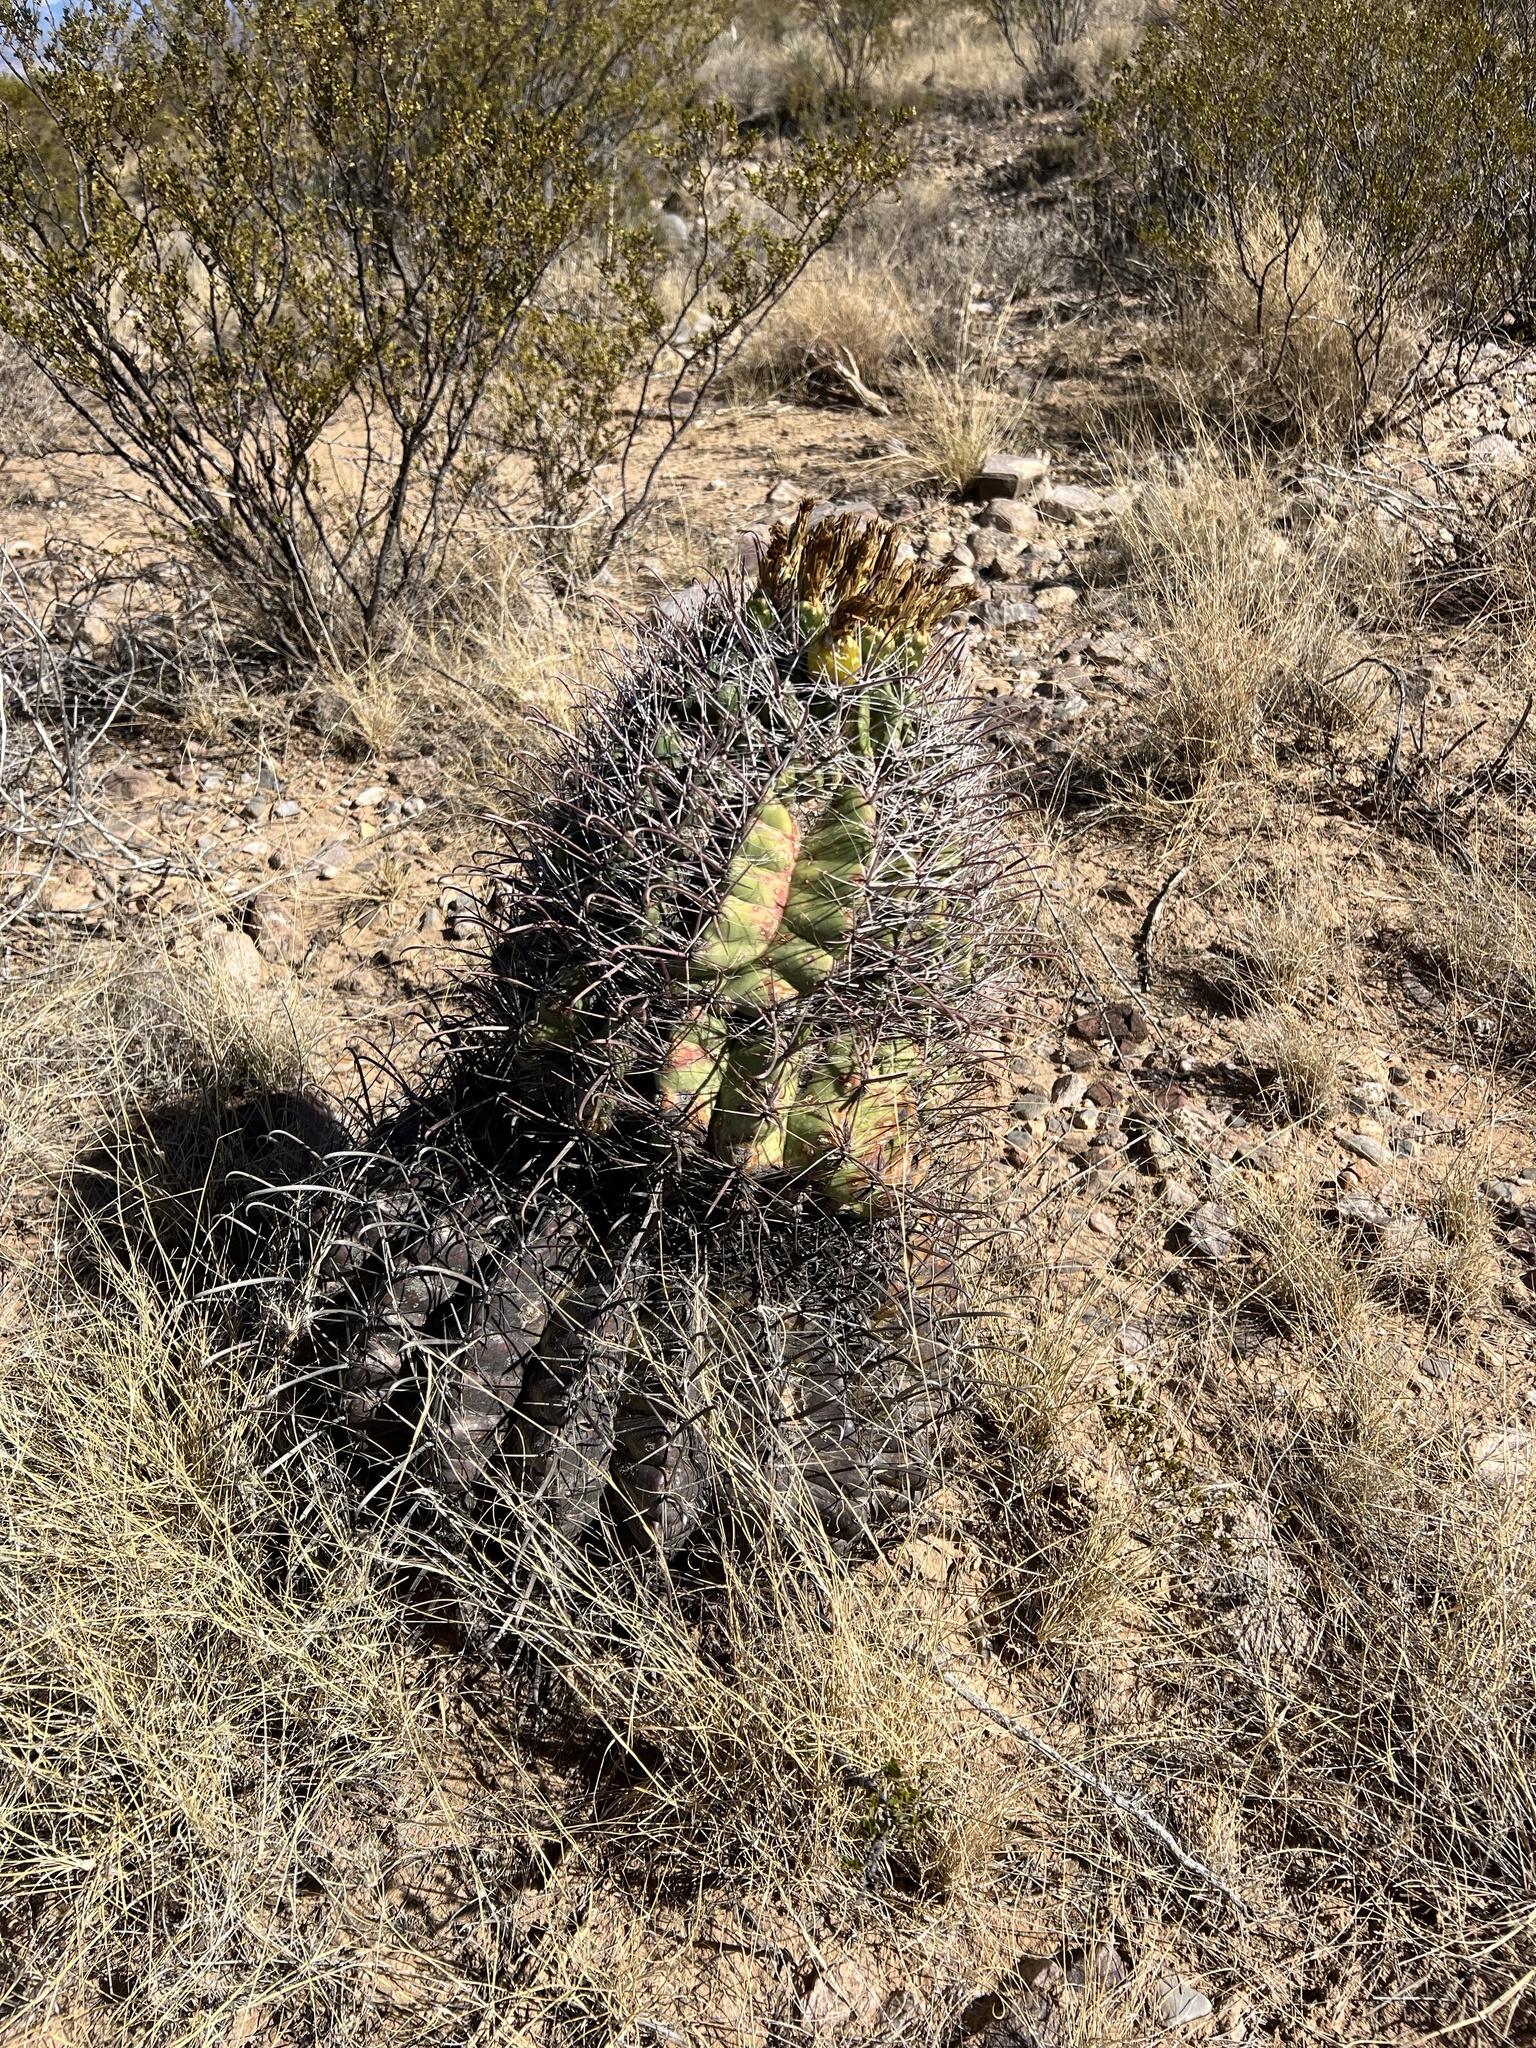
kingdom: Plantae
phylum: Tracheophyta
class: Magnoliopsida
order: Caryophyllales
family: Cactaceae
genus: Ferocactus
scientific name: Ferocactus wislizeni
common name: Candy barrel cactus
